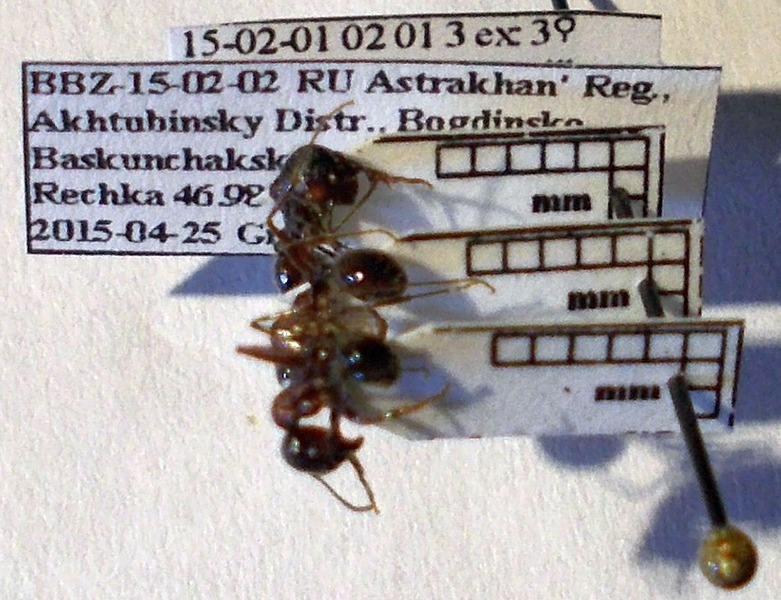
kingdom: Animalia
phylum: Arthropoda
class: Insecta
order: Hymenoptera
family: Formicidae
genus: Messor
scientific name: Messor structor
